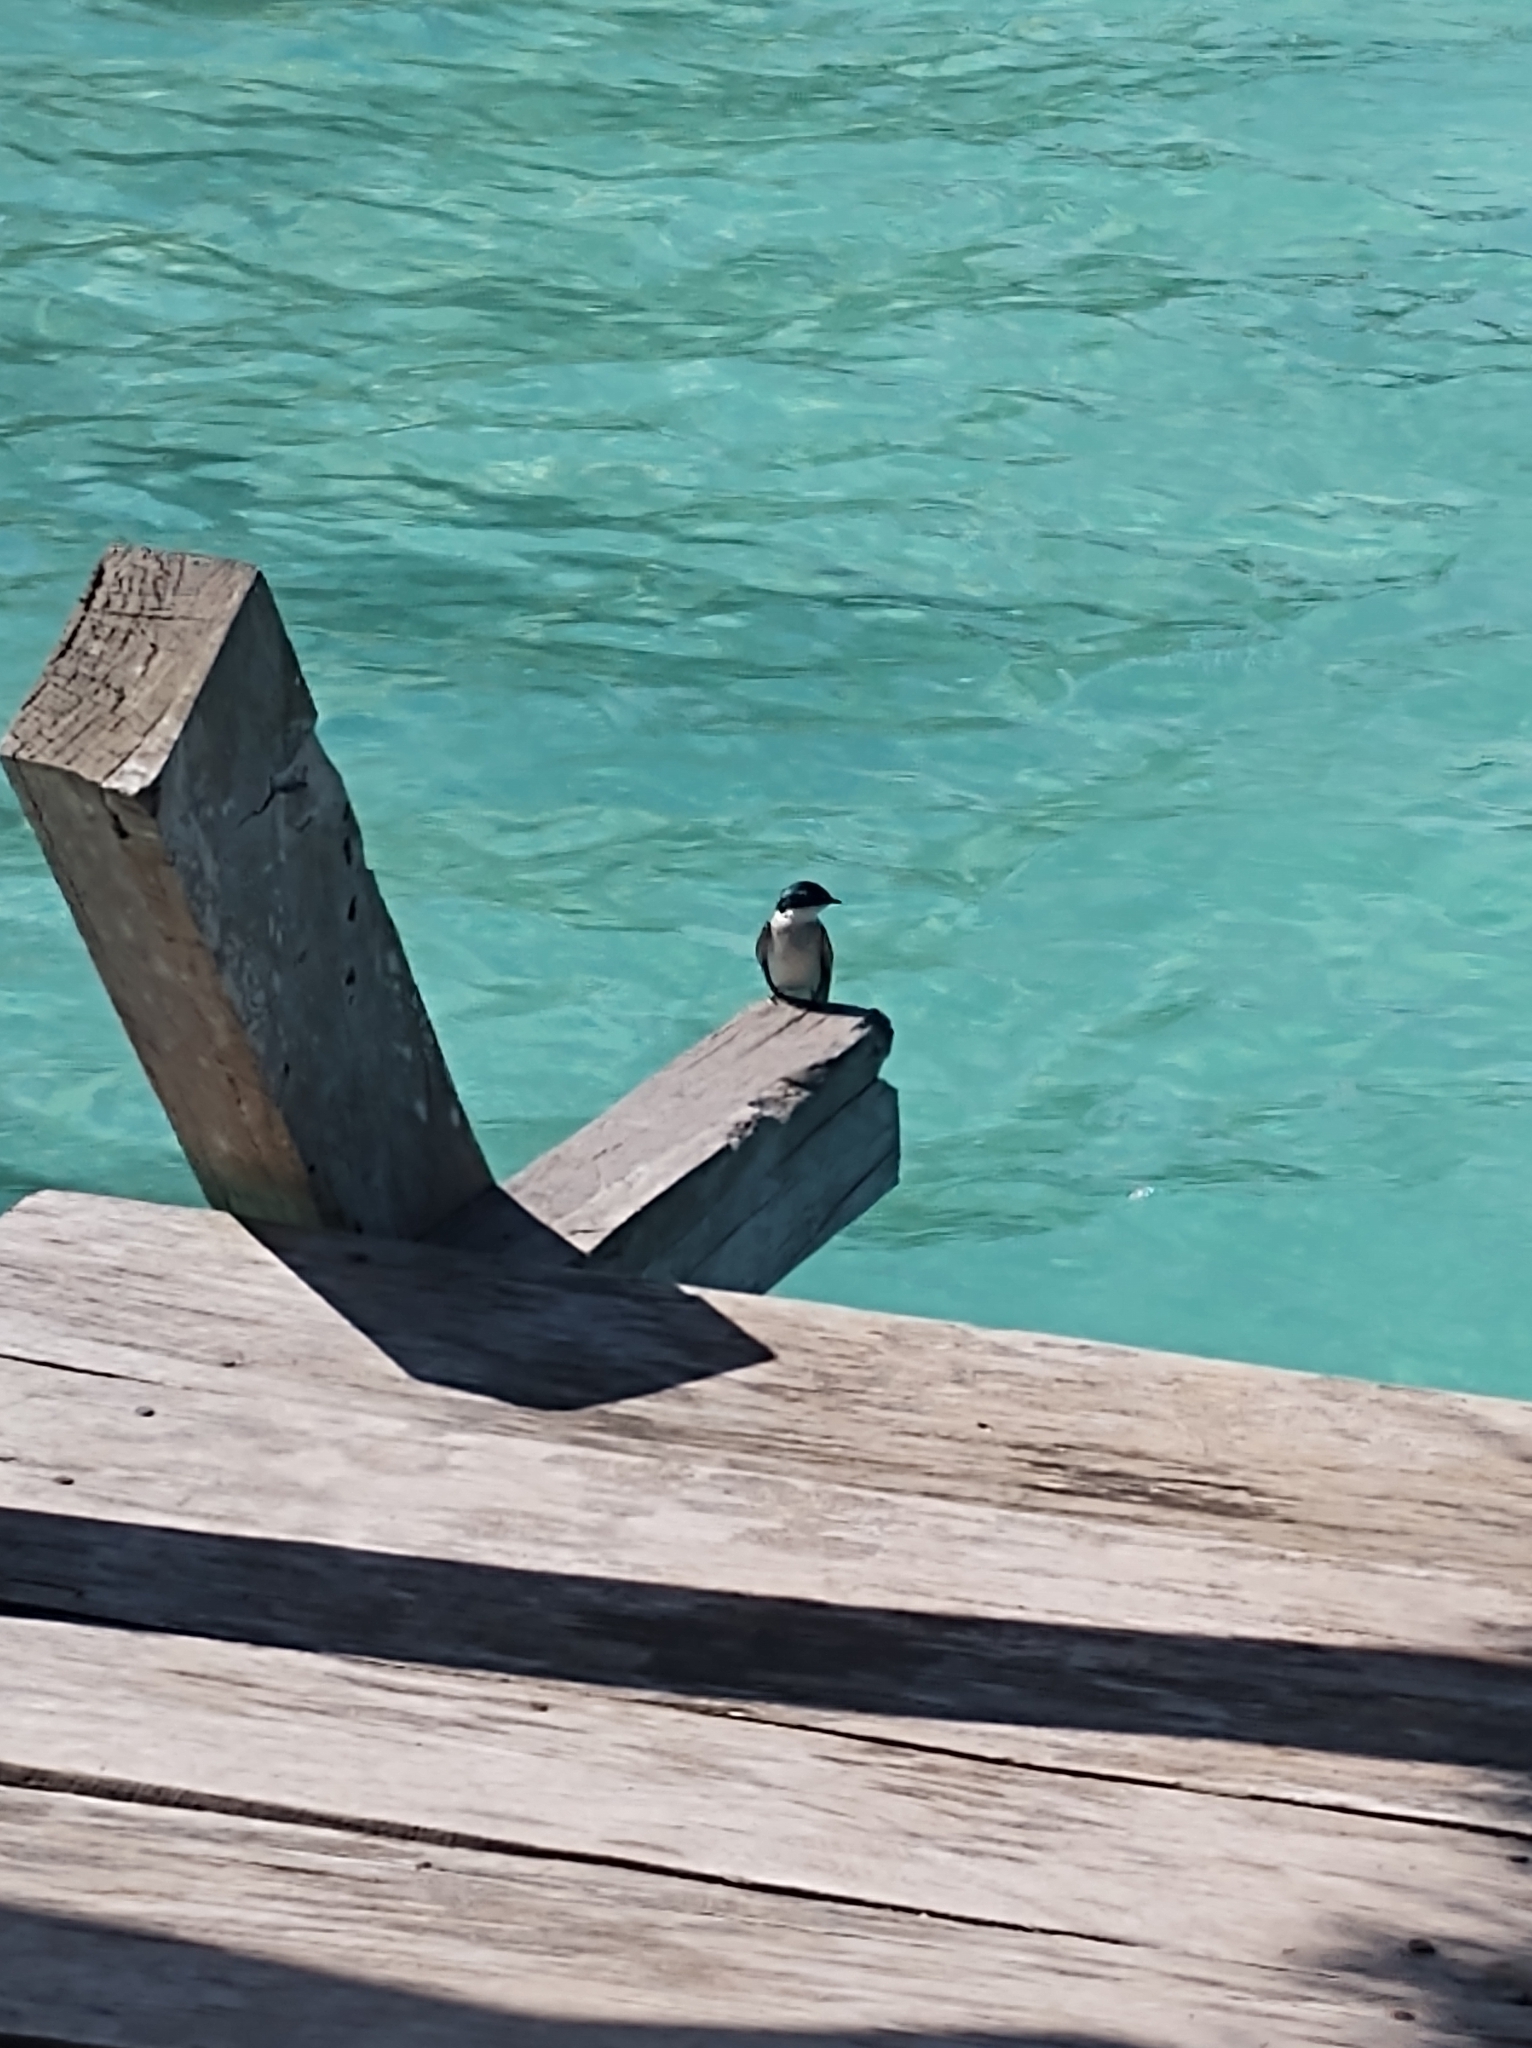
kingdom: Animalia
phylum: Chordata
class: Aves
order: Passeriformes
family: Hirundinidae
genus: Tachycineta
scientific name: Tachycineta albilinea
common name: Mangrove swallow
